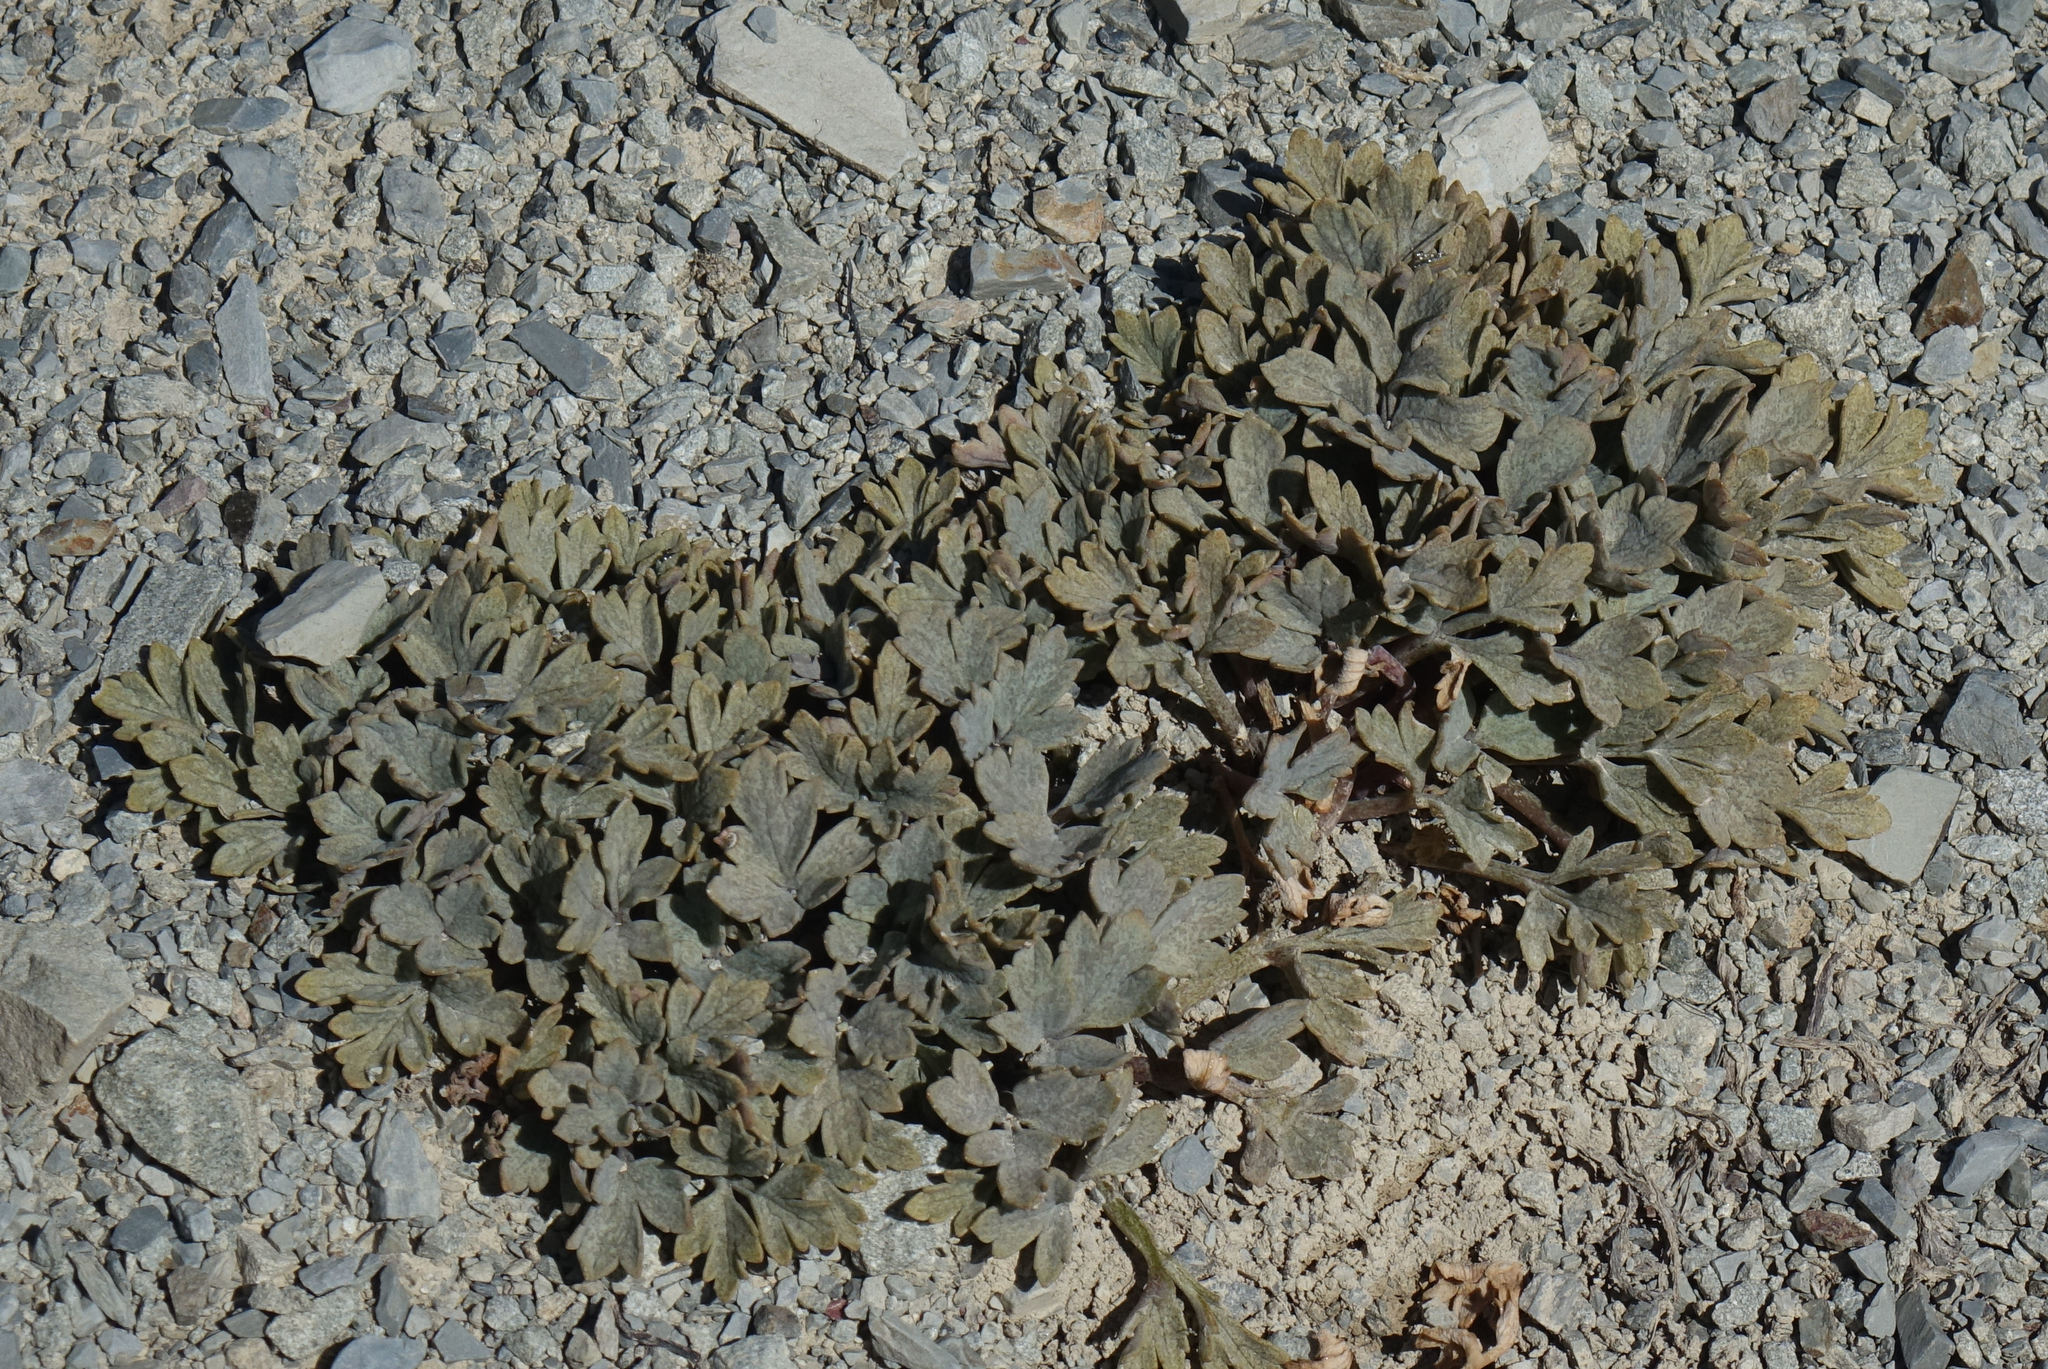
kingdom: Plantae
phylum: Tracheophyta
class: Magnoliopsida
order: Ranunculales
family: Ranunculaceae
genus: Ranunculus
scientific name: Ranunculus crithmifolius
